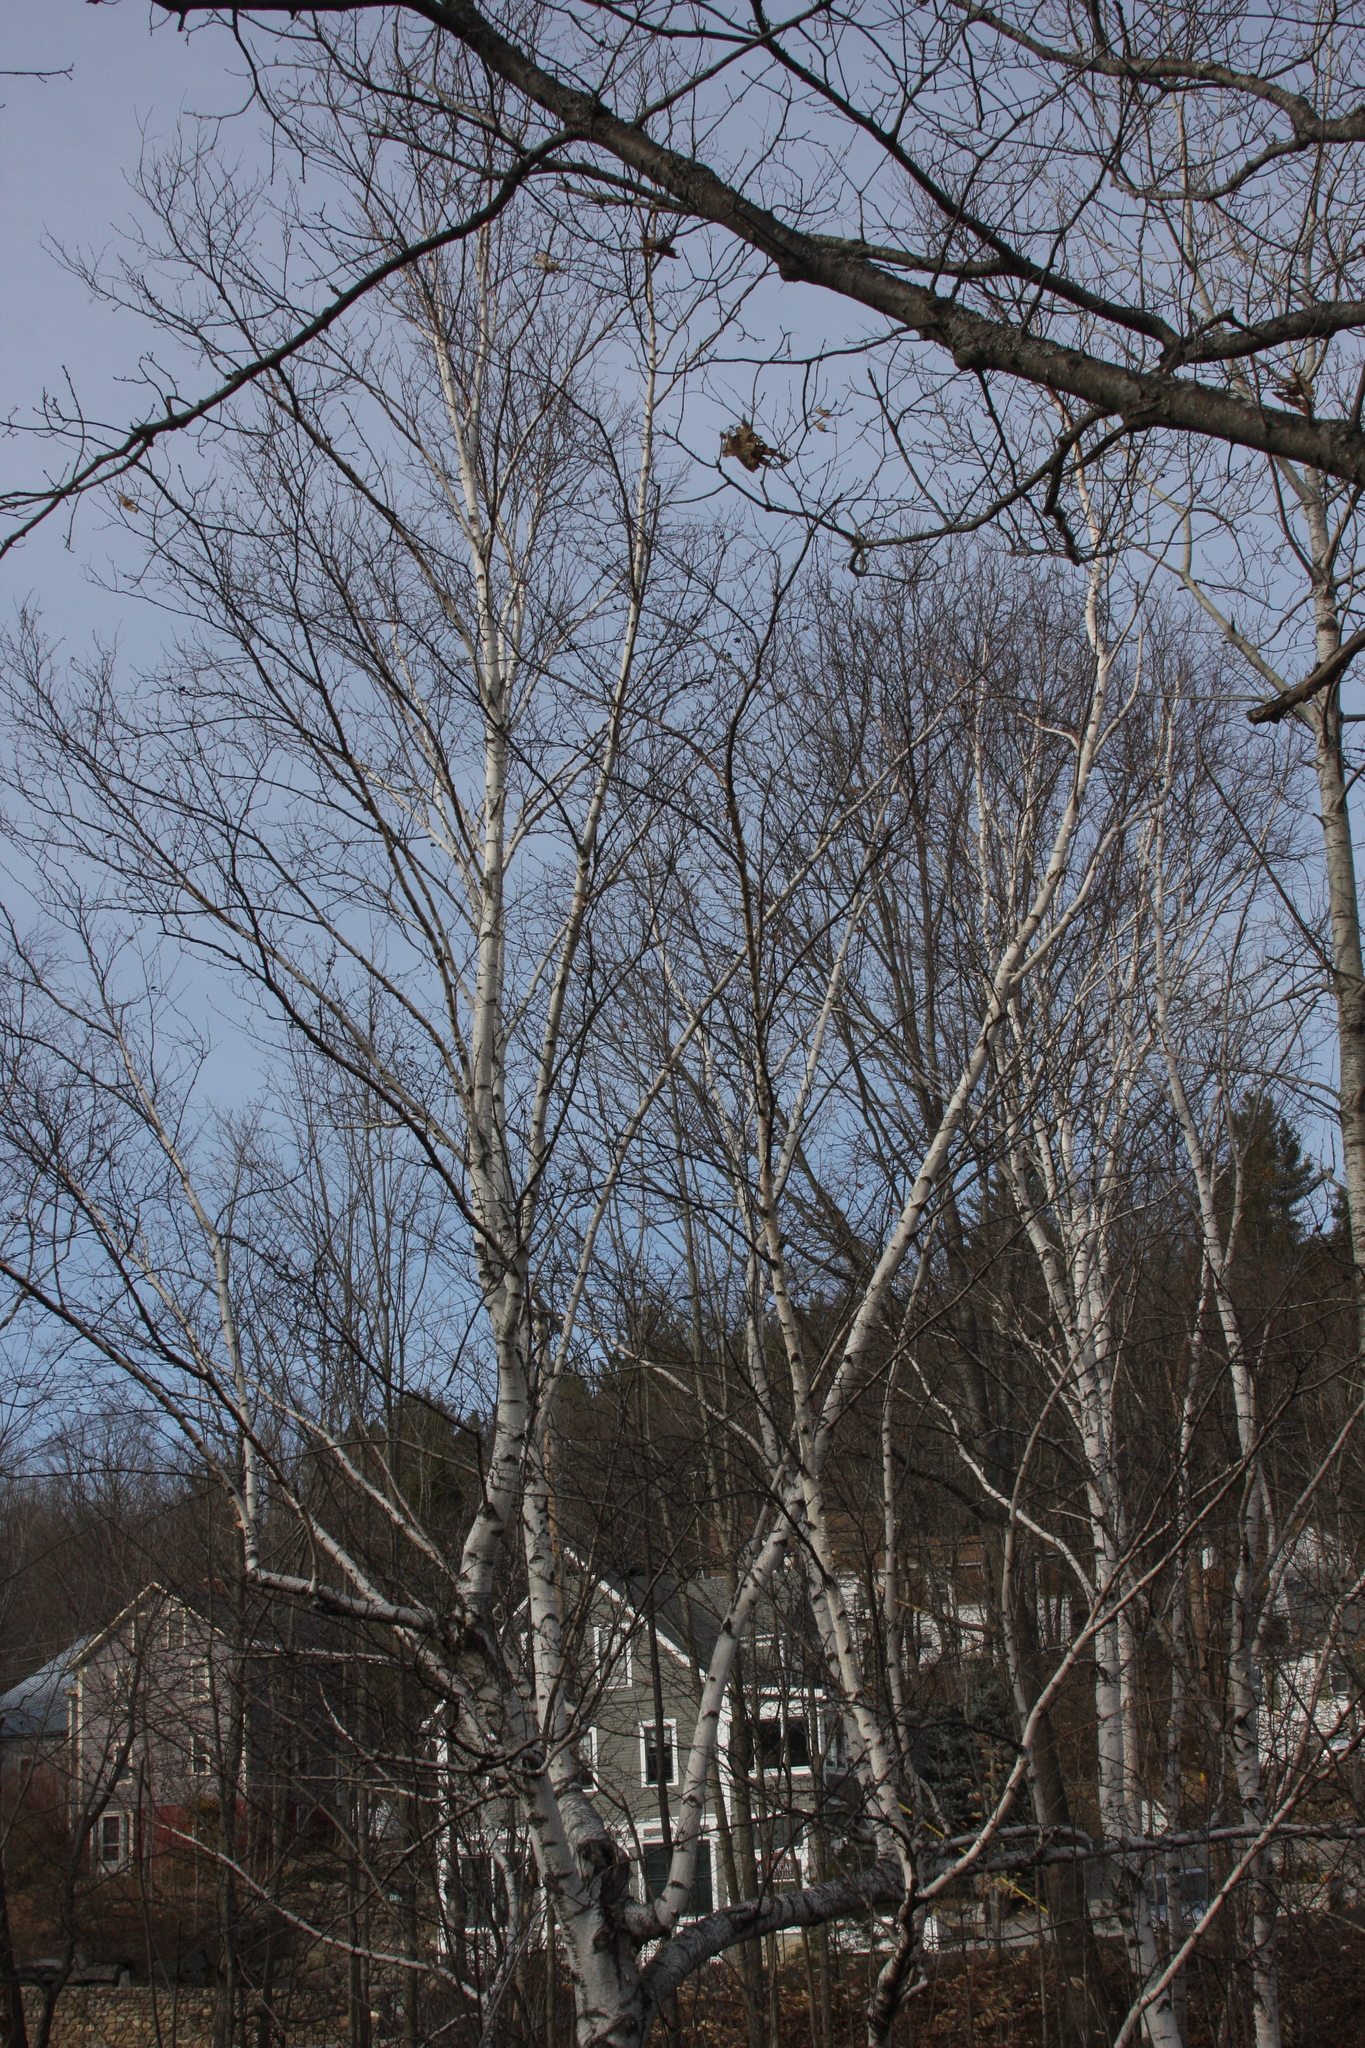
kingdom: Plantae
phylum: Tracheophyta
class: Magnoliopsida
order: Fagales
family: Betulaceae
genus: Betula
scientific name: Betula populifolia
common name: Fire birch
